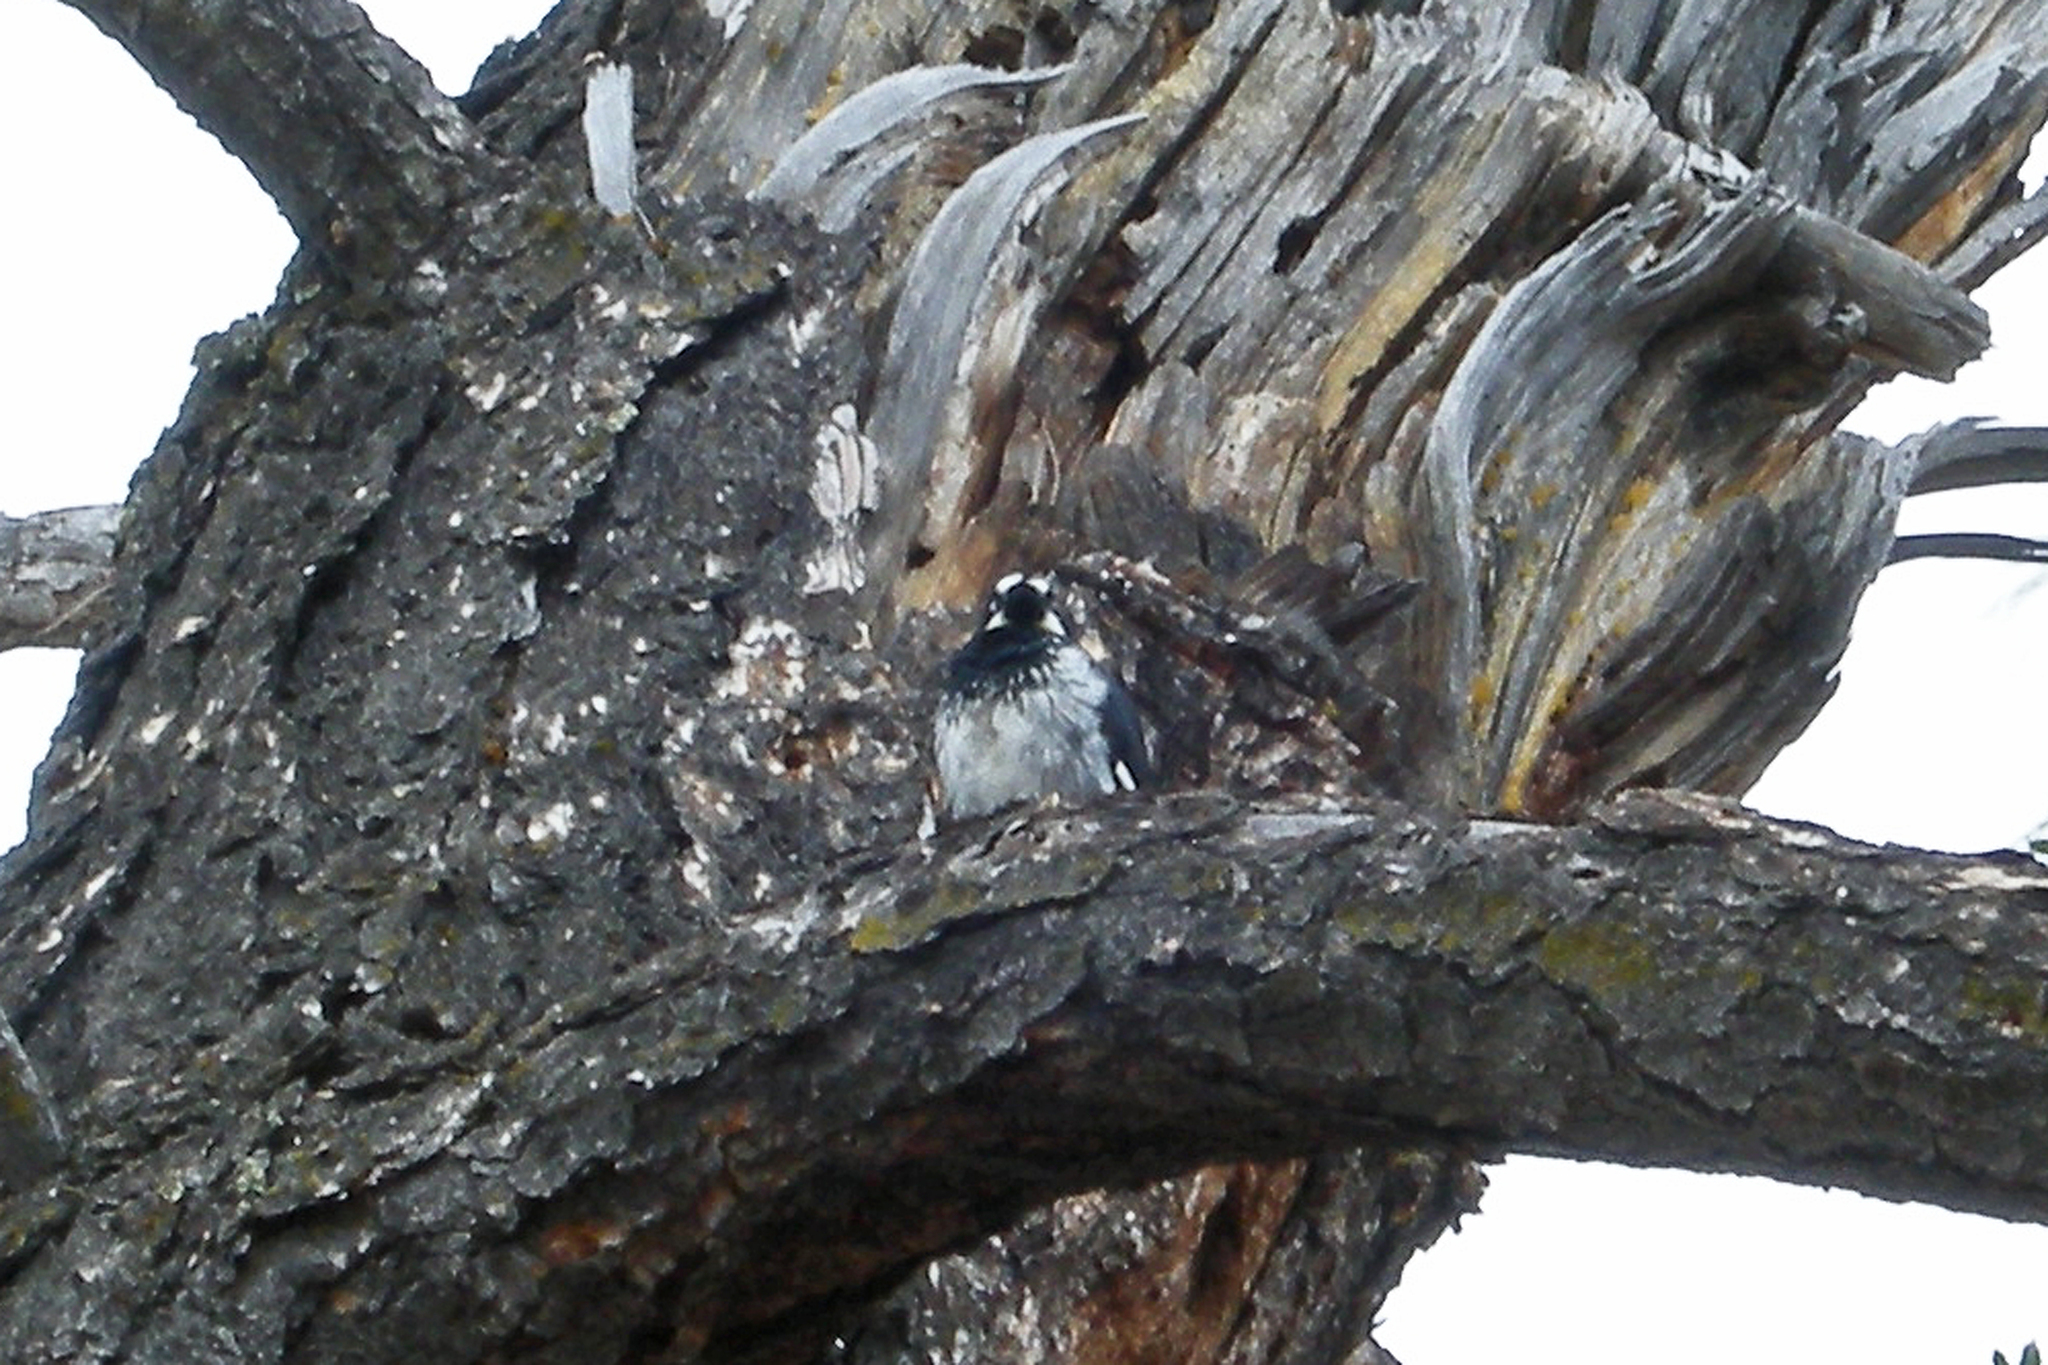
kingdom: Animalia
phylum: Chordata
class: Aves
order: Piciformes
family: Picidae
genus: Melanerpes
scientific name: Melanerpes formicivorus
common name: Acorn woodpecker
